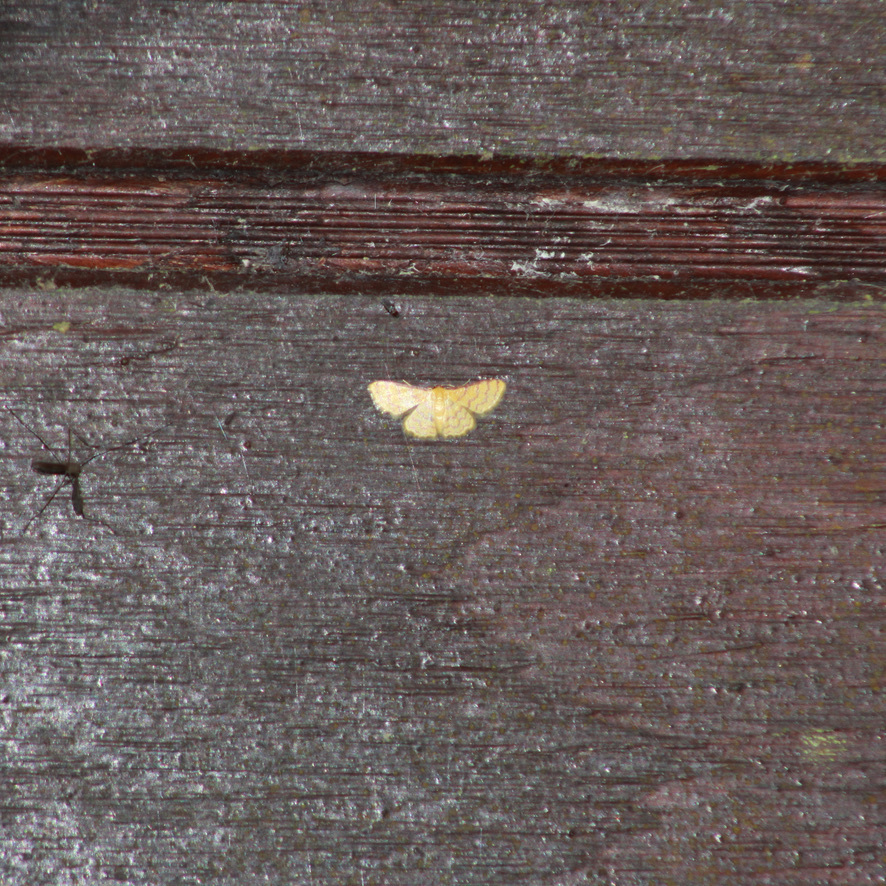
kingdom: Animalia
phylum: Arthropoda
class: Insecta
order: Lepidoptera
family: Geometridae
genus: Tricentrogyna
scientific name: Tricentrogyna deportata
